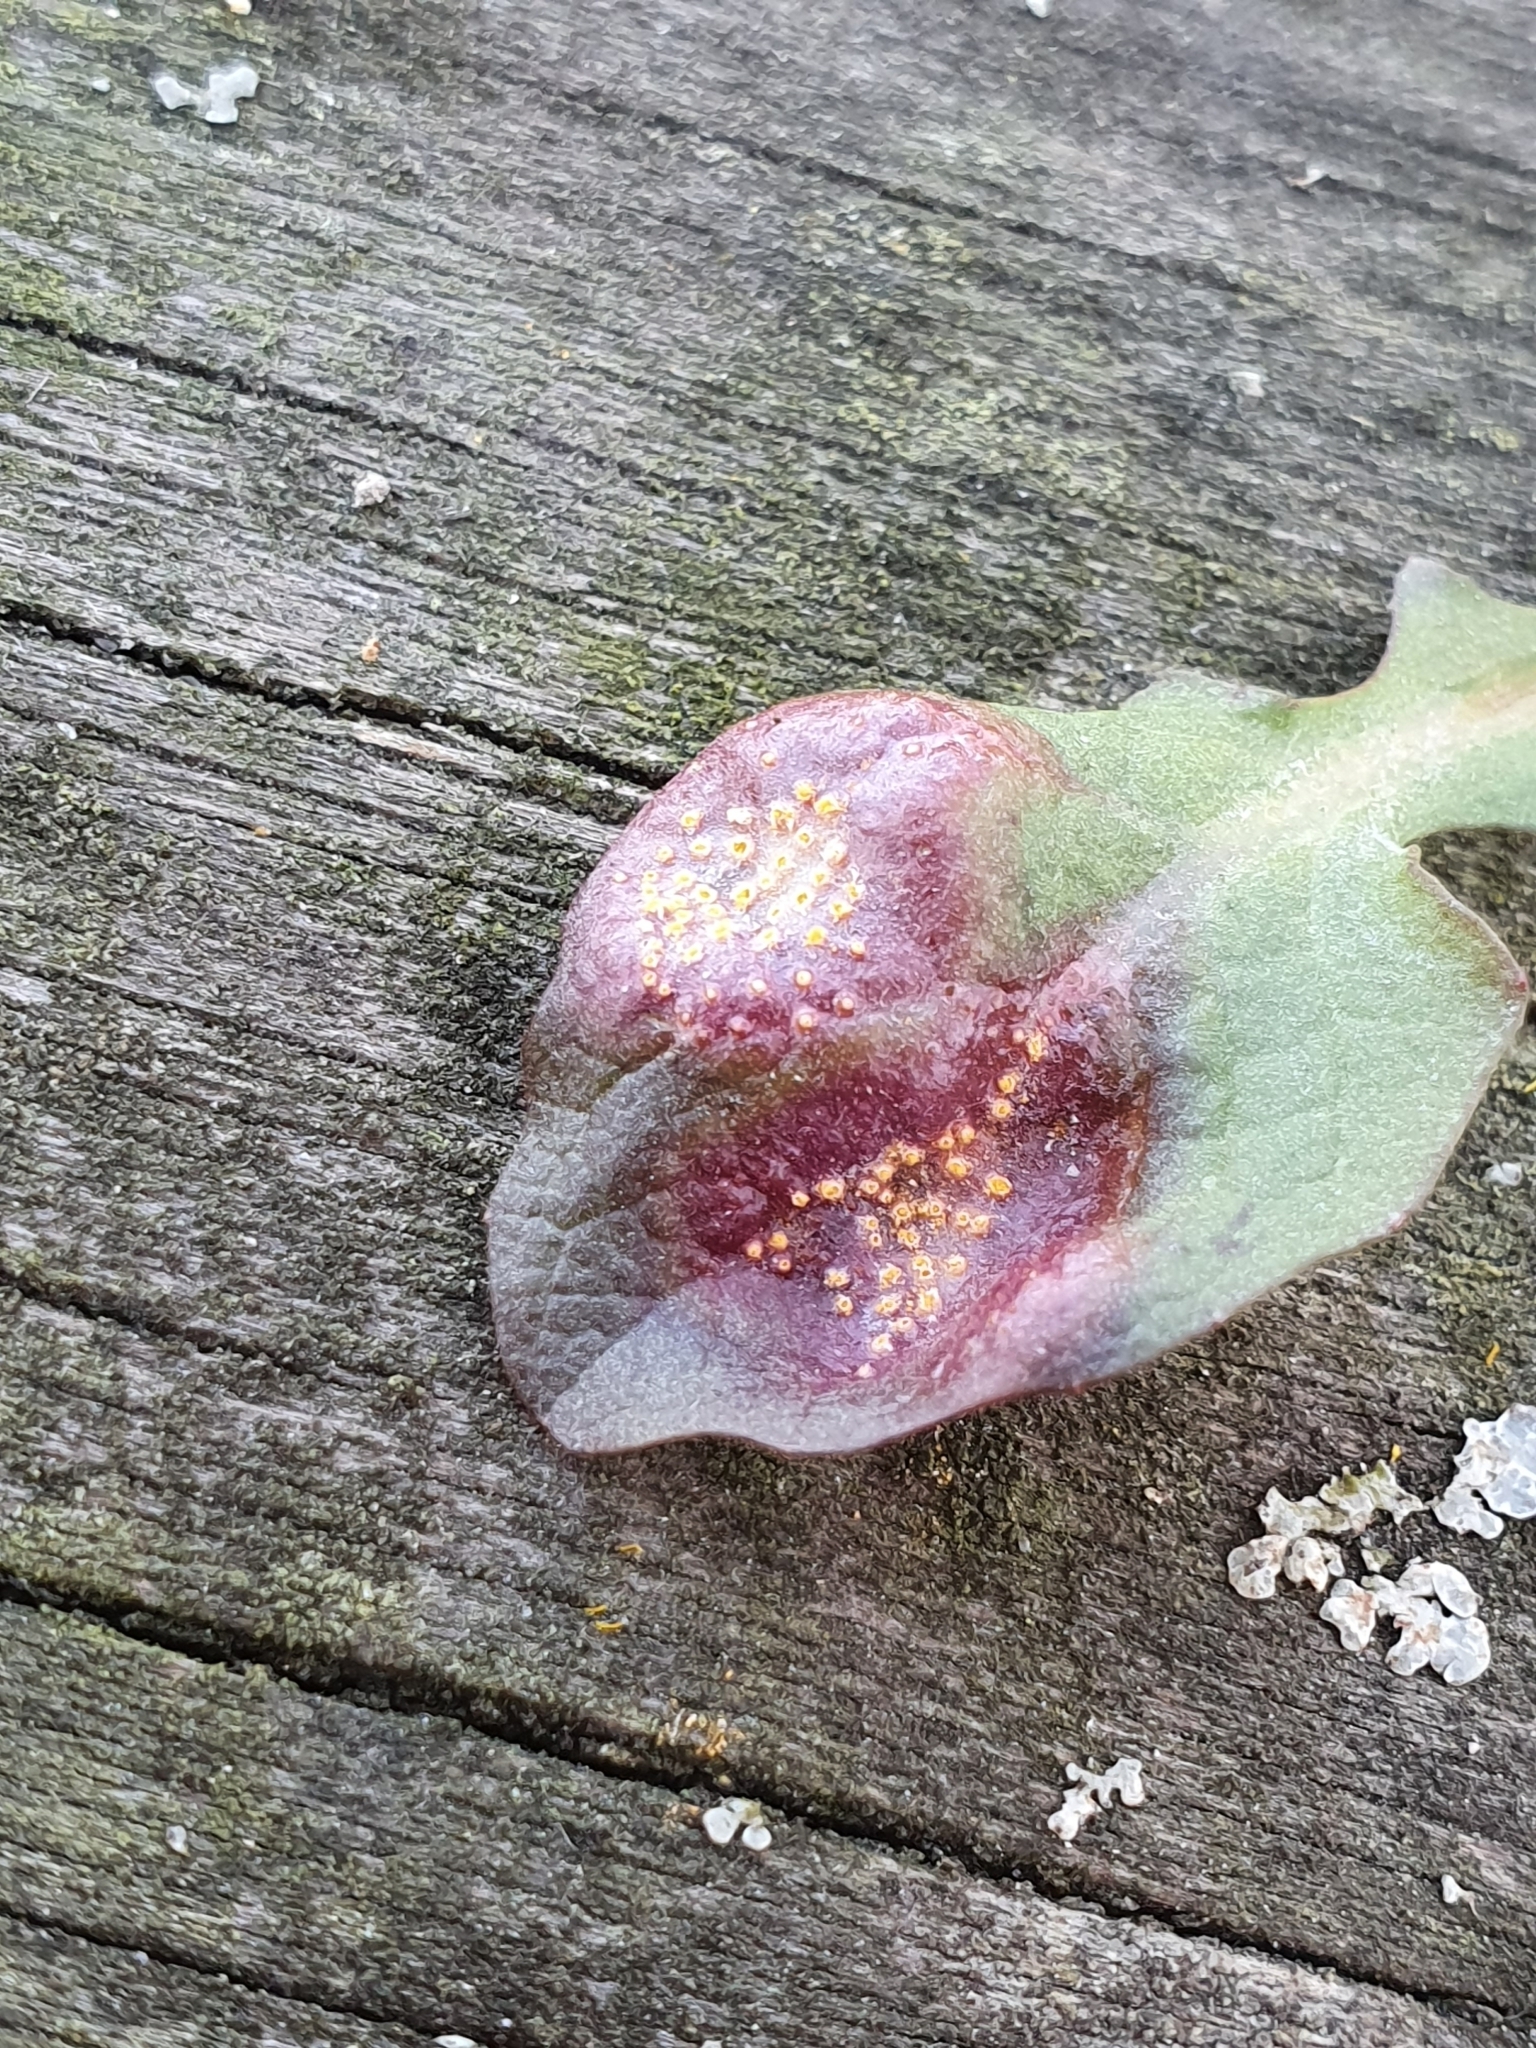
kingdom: Fungi
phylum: Basidiomycota
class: Pucciniomycetes
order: Pucciniales
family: Pucciniaceae
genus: Puccinia
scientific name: Puccinia lapsanae
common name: Nipplewort rust
